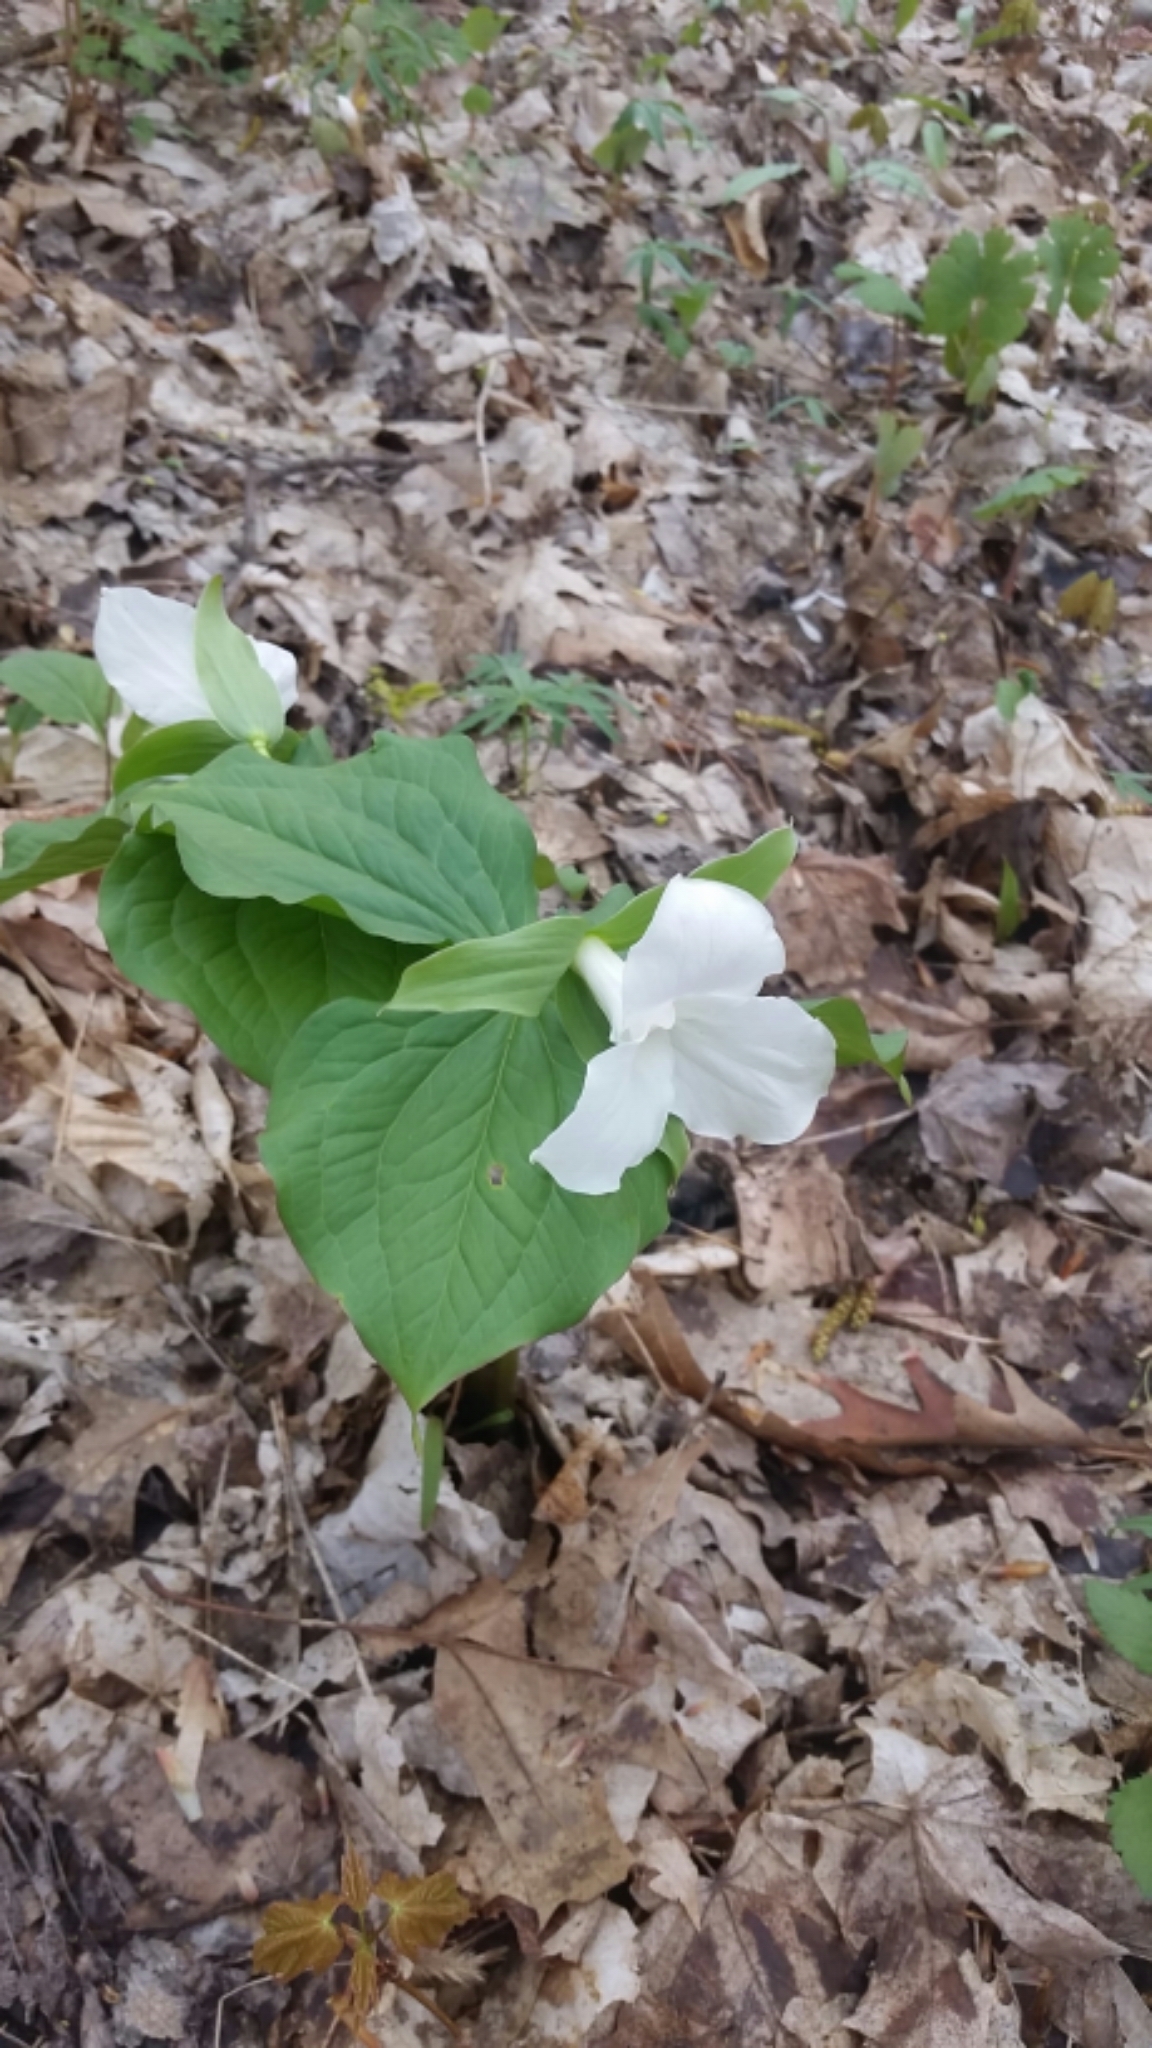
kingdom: Plantae
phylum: Tracheophyta
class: Liliopsida
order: Liliales
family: Melanthiaceae
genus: Trillium
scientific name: Trillium grandiflorum
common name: Great white trillium
